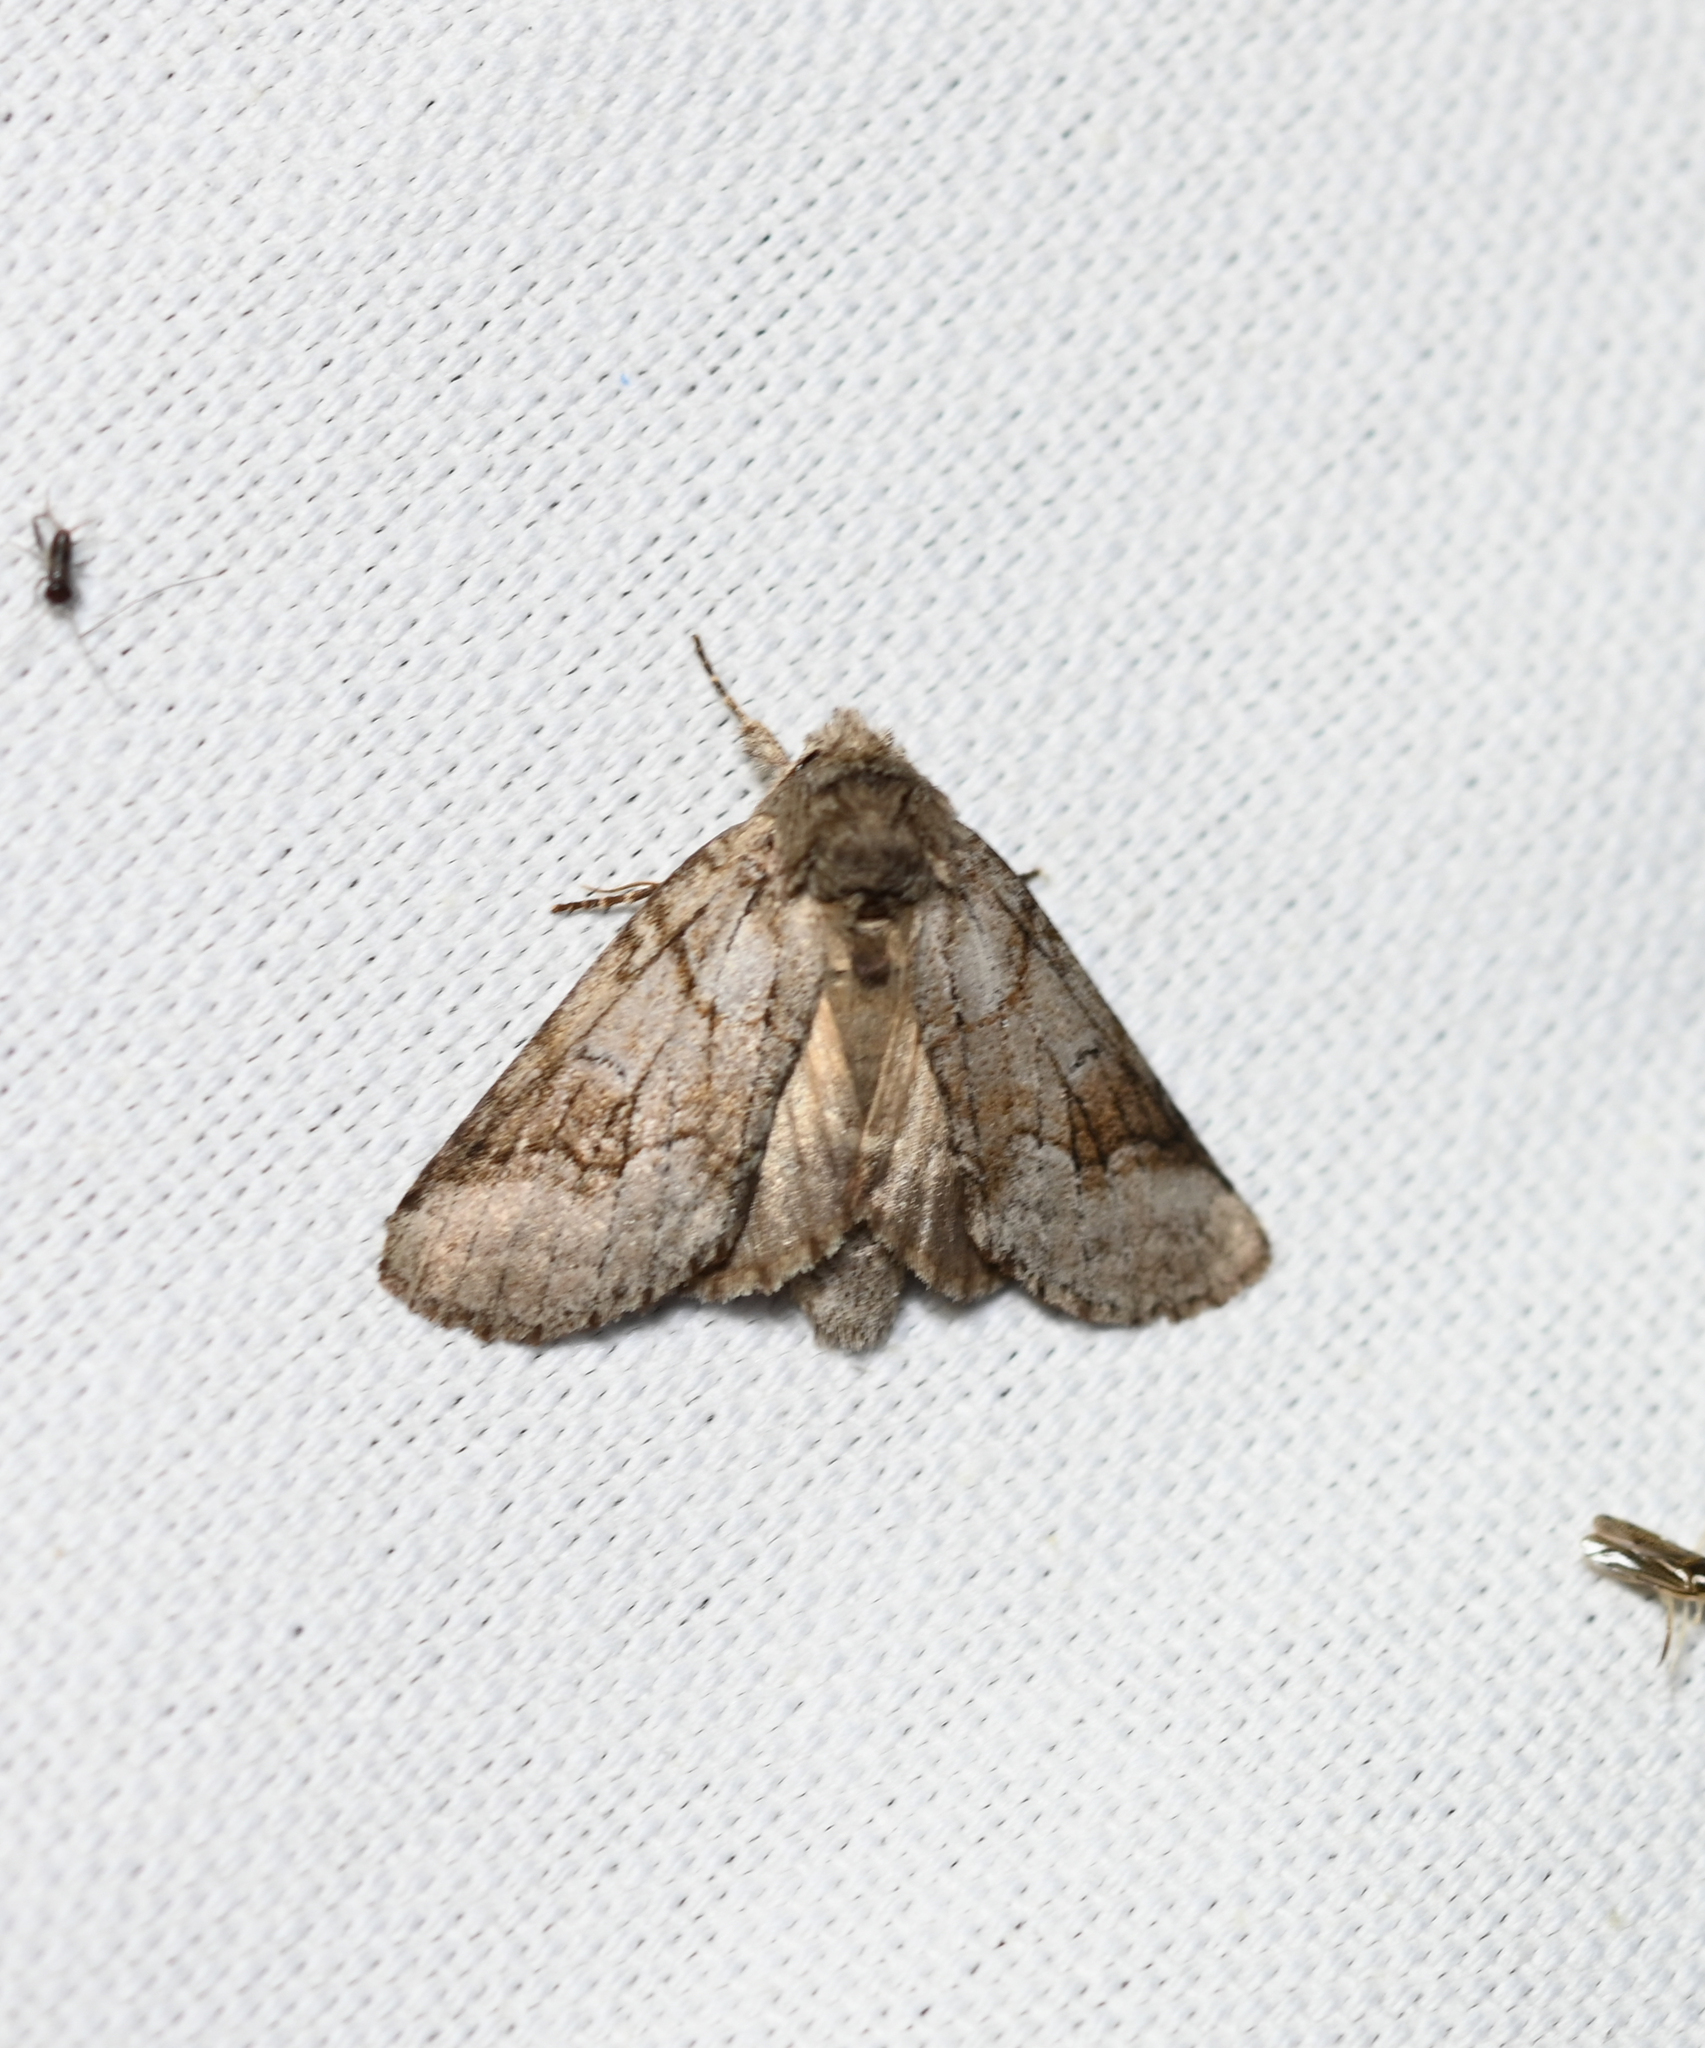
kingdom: Animalia
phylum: Arthropoda
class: Insecta
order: Lepidoptera
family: Notodontidae
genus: Lochmaeus
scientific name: Lochmaeus bilineata
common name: Double-lined prominent
